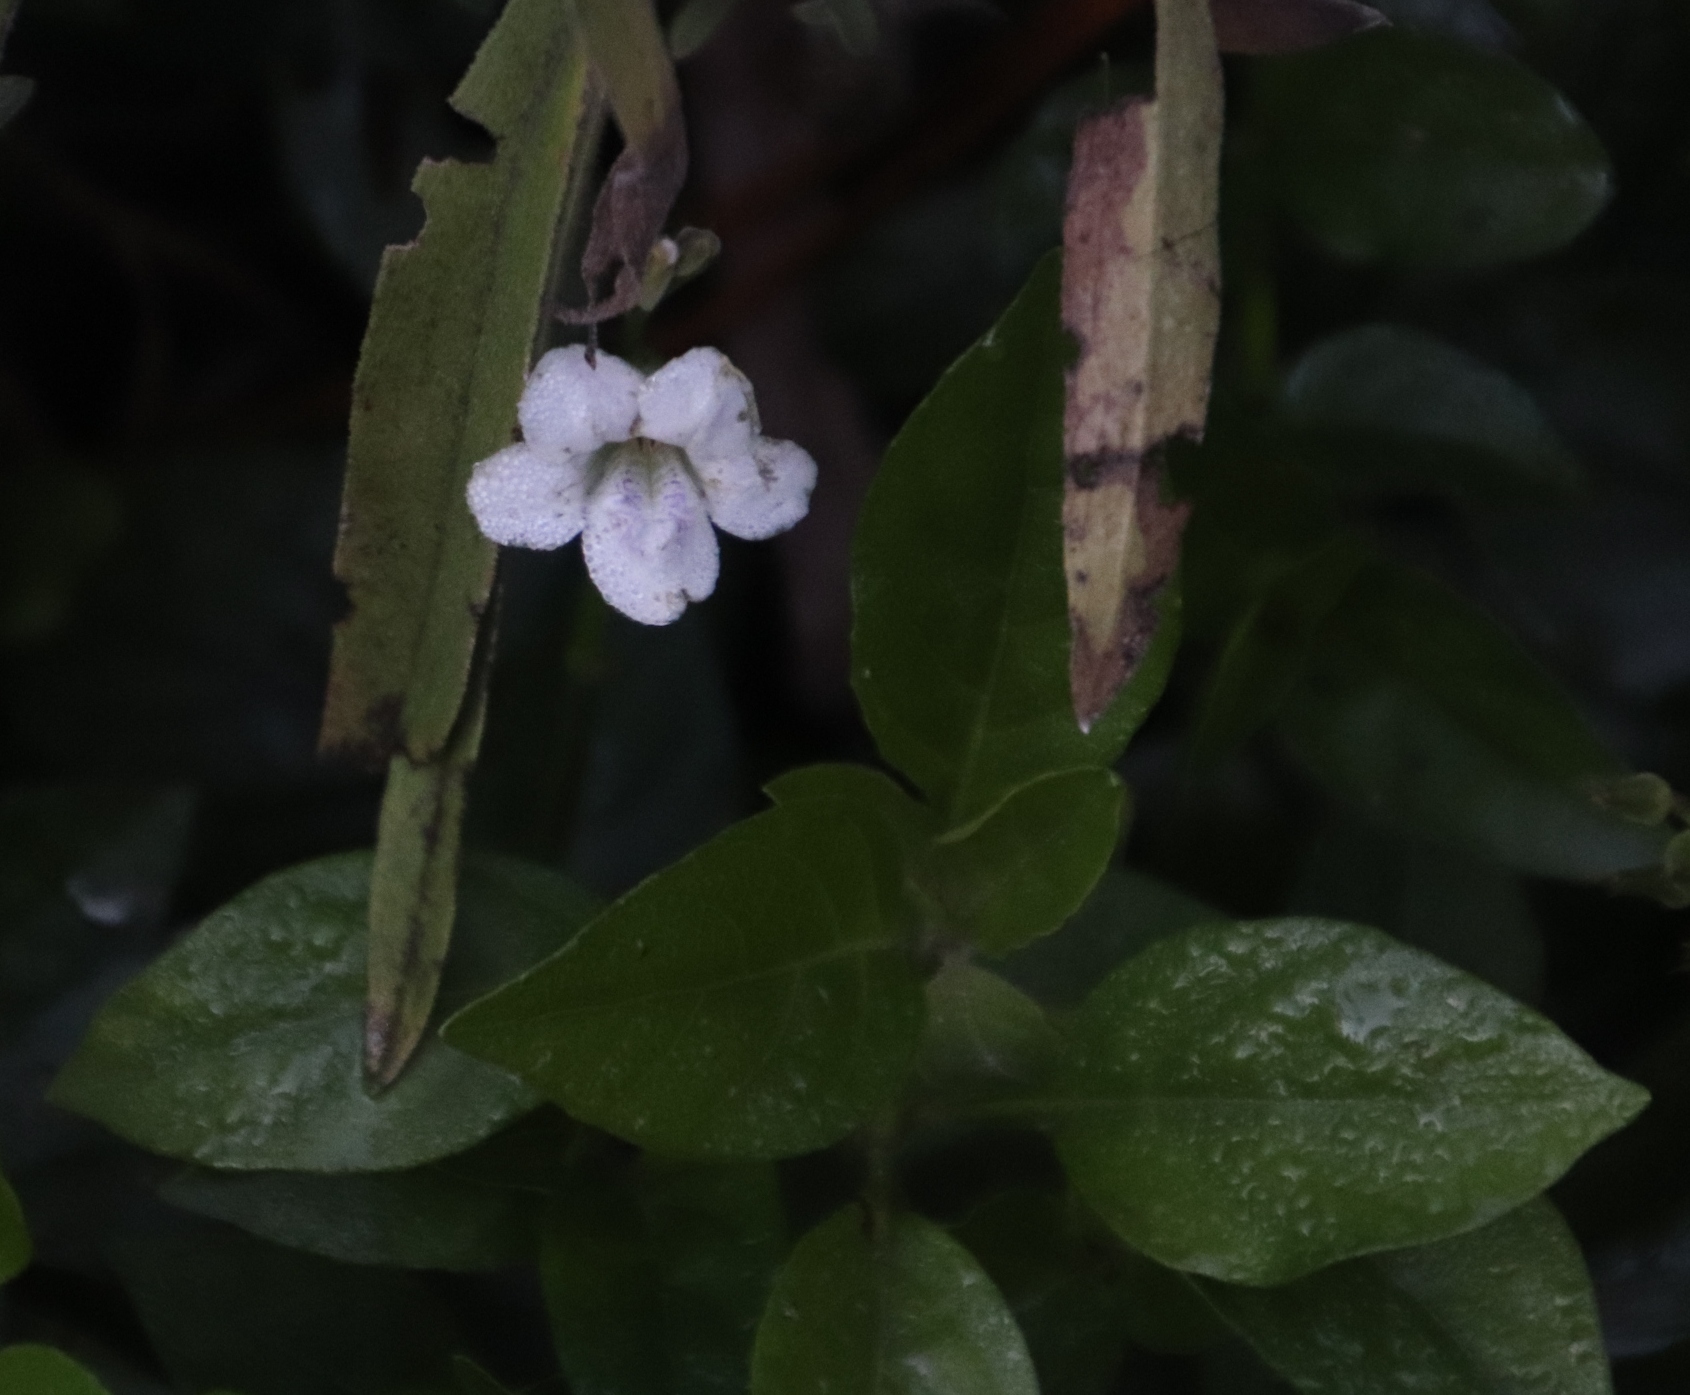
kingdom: Plantae
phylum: Tracheophyta
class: Magnoliopsida
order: Lamiales
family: Acanthaceae
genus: Asystasia
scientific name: Asystasia intrusa
